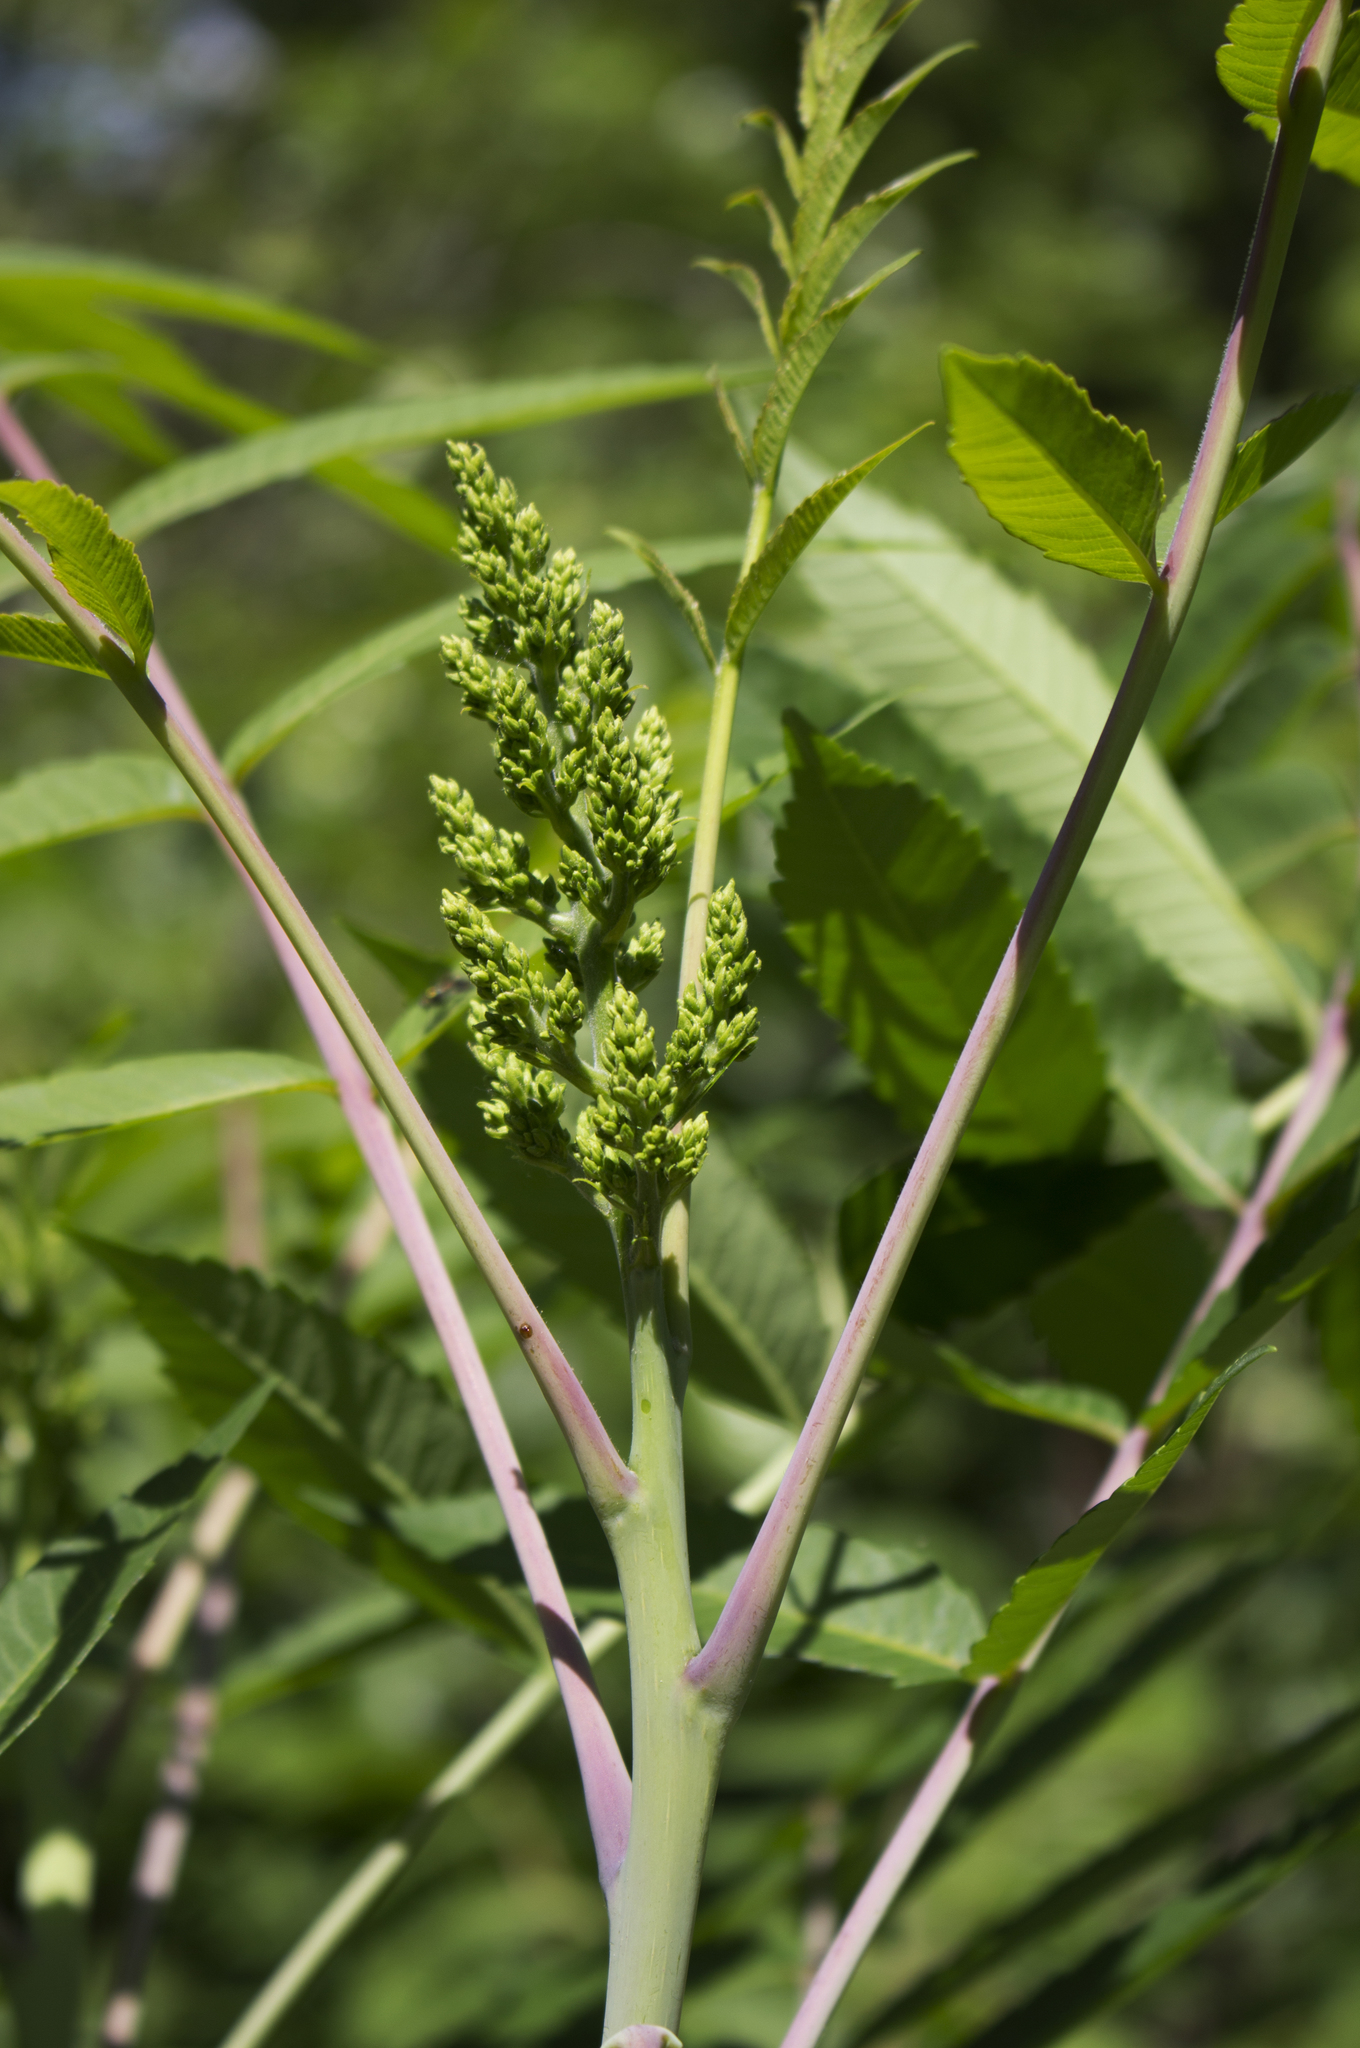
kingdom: Plantae
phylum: Tracheophyta
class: Magnoliopsida
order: Sapindales
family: Anacardiaceae
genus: Rhus
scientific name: Rhus glabra
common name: Scarlet sumac
